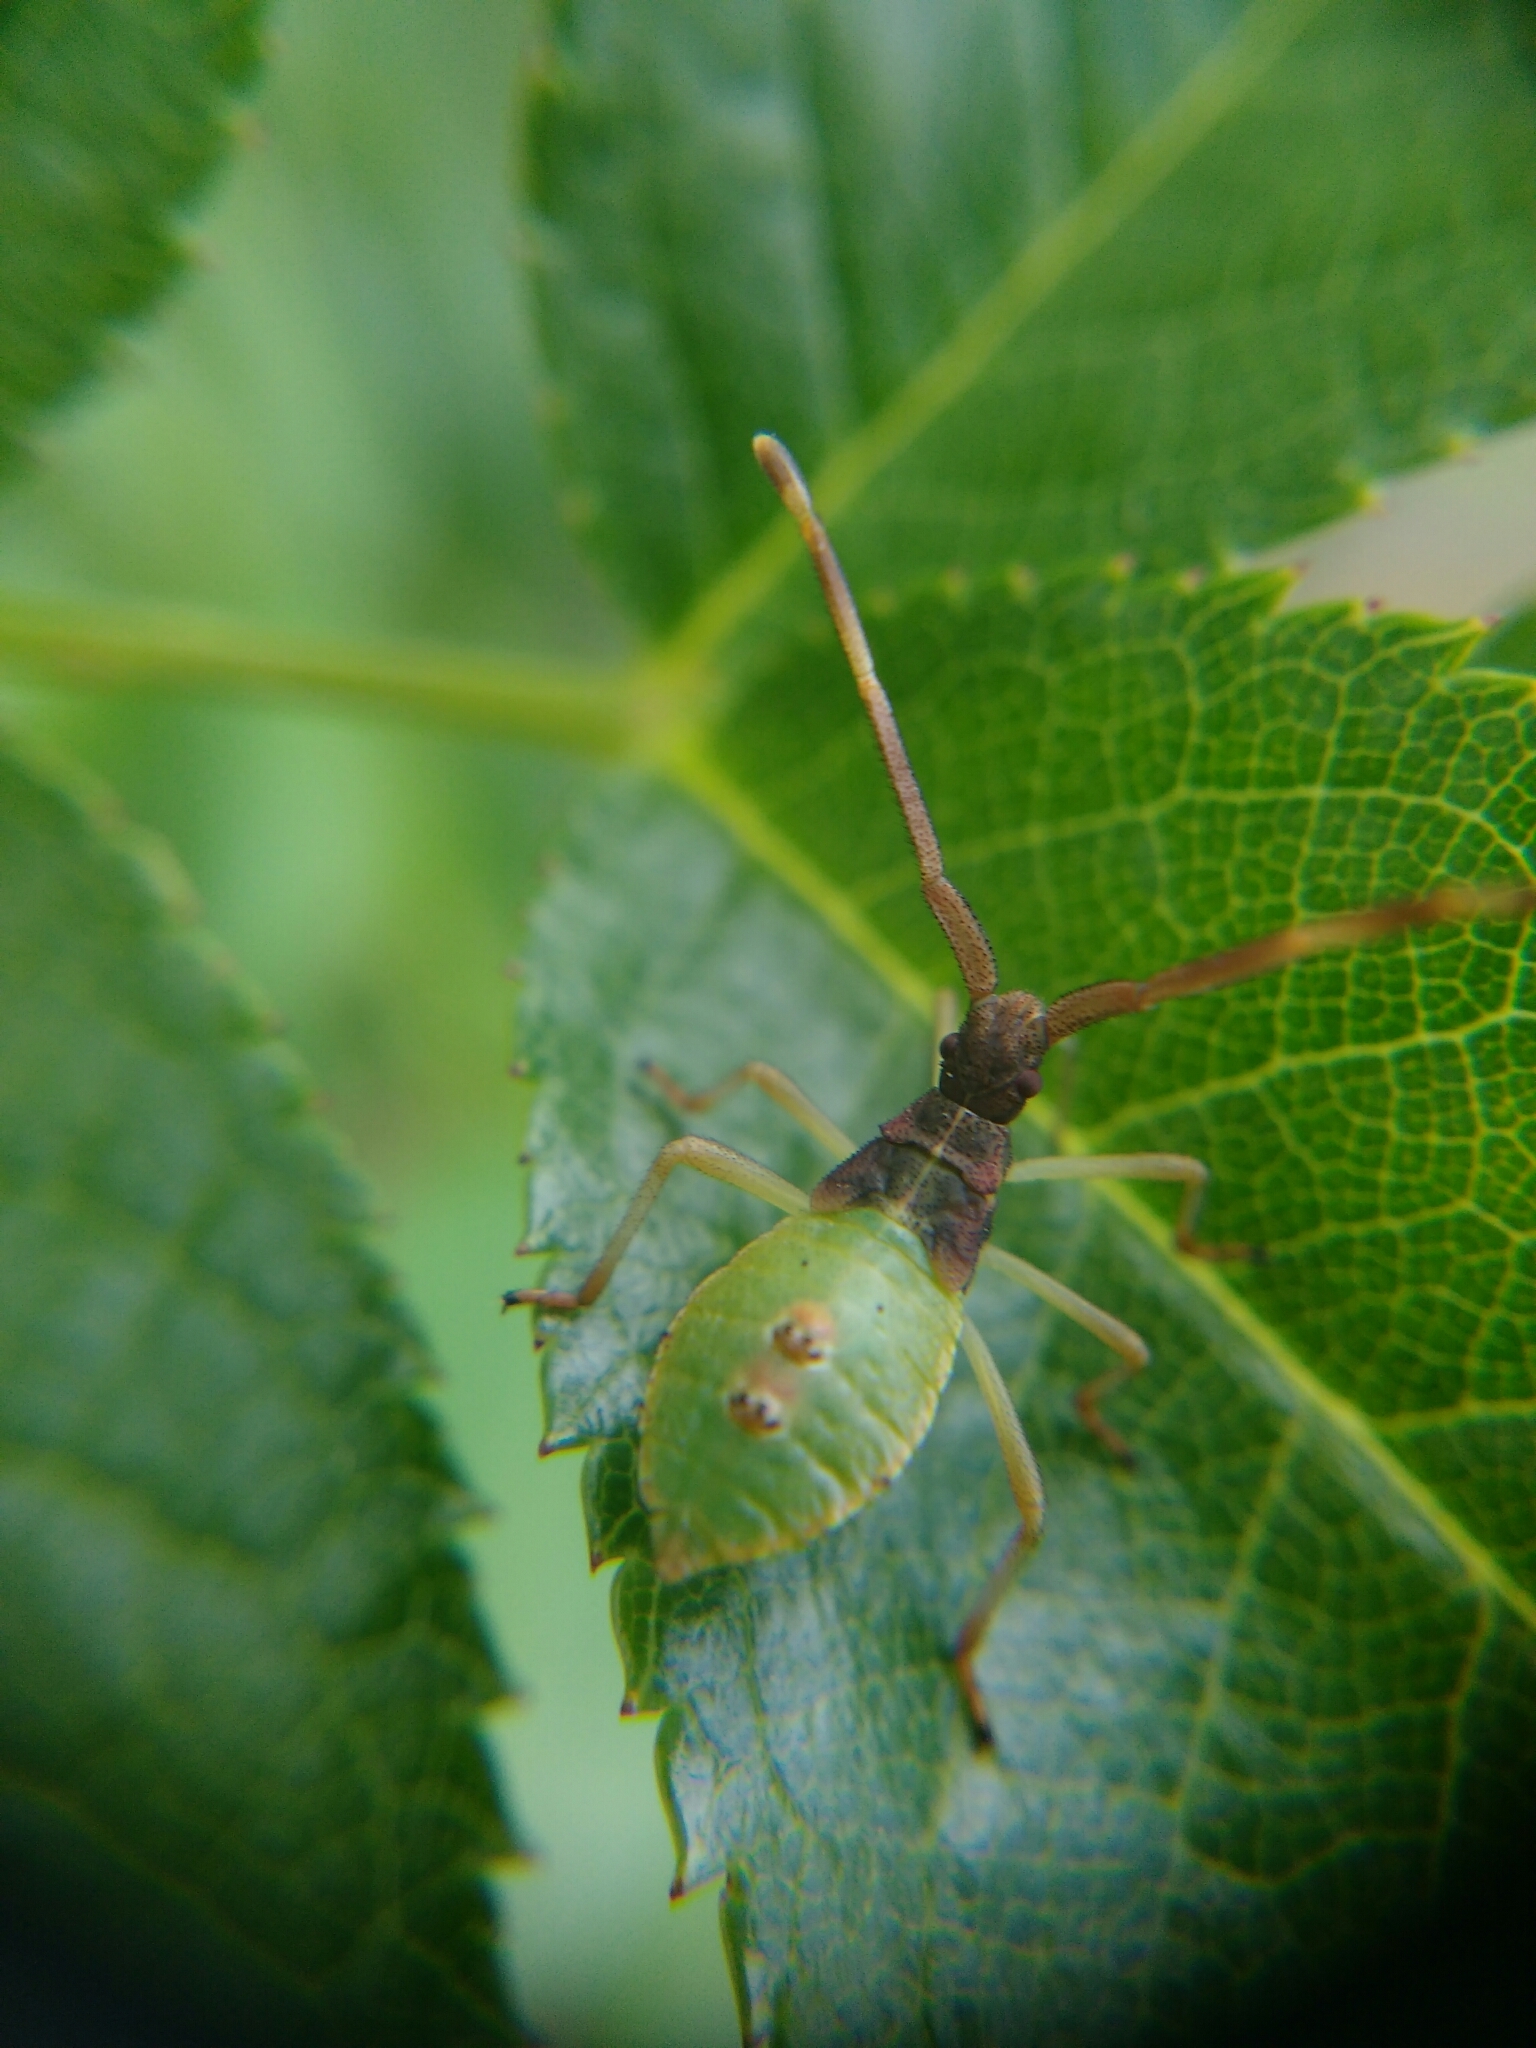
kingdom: Animalia
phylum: Arthropoda
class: Insecta
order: Hemiptera
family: Coreidae
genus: Gonocerus
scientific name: Gonocerus acuteangulatus
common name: Box bug
